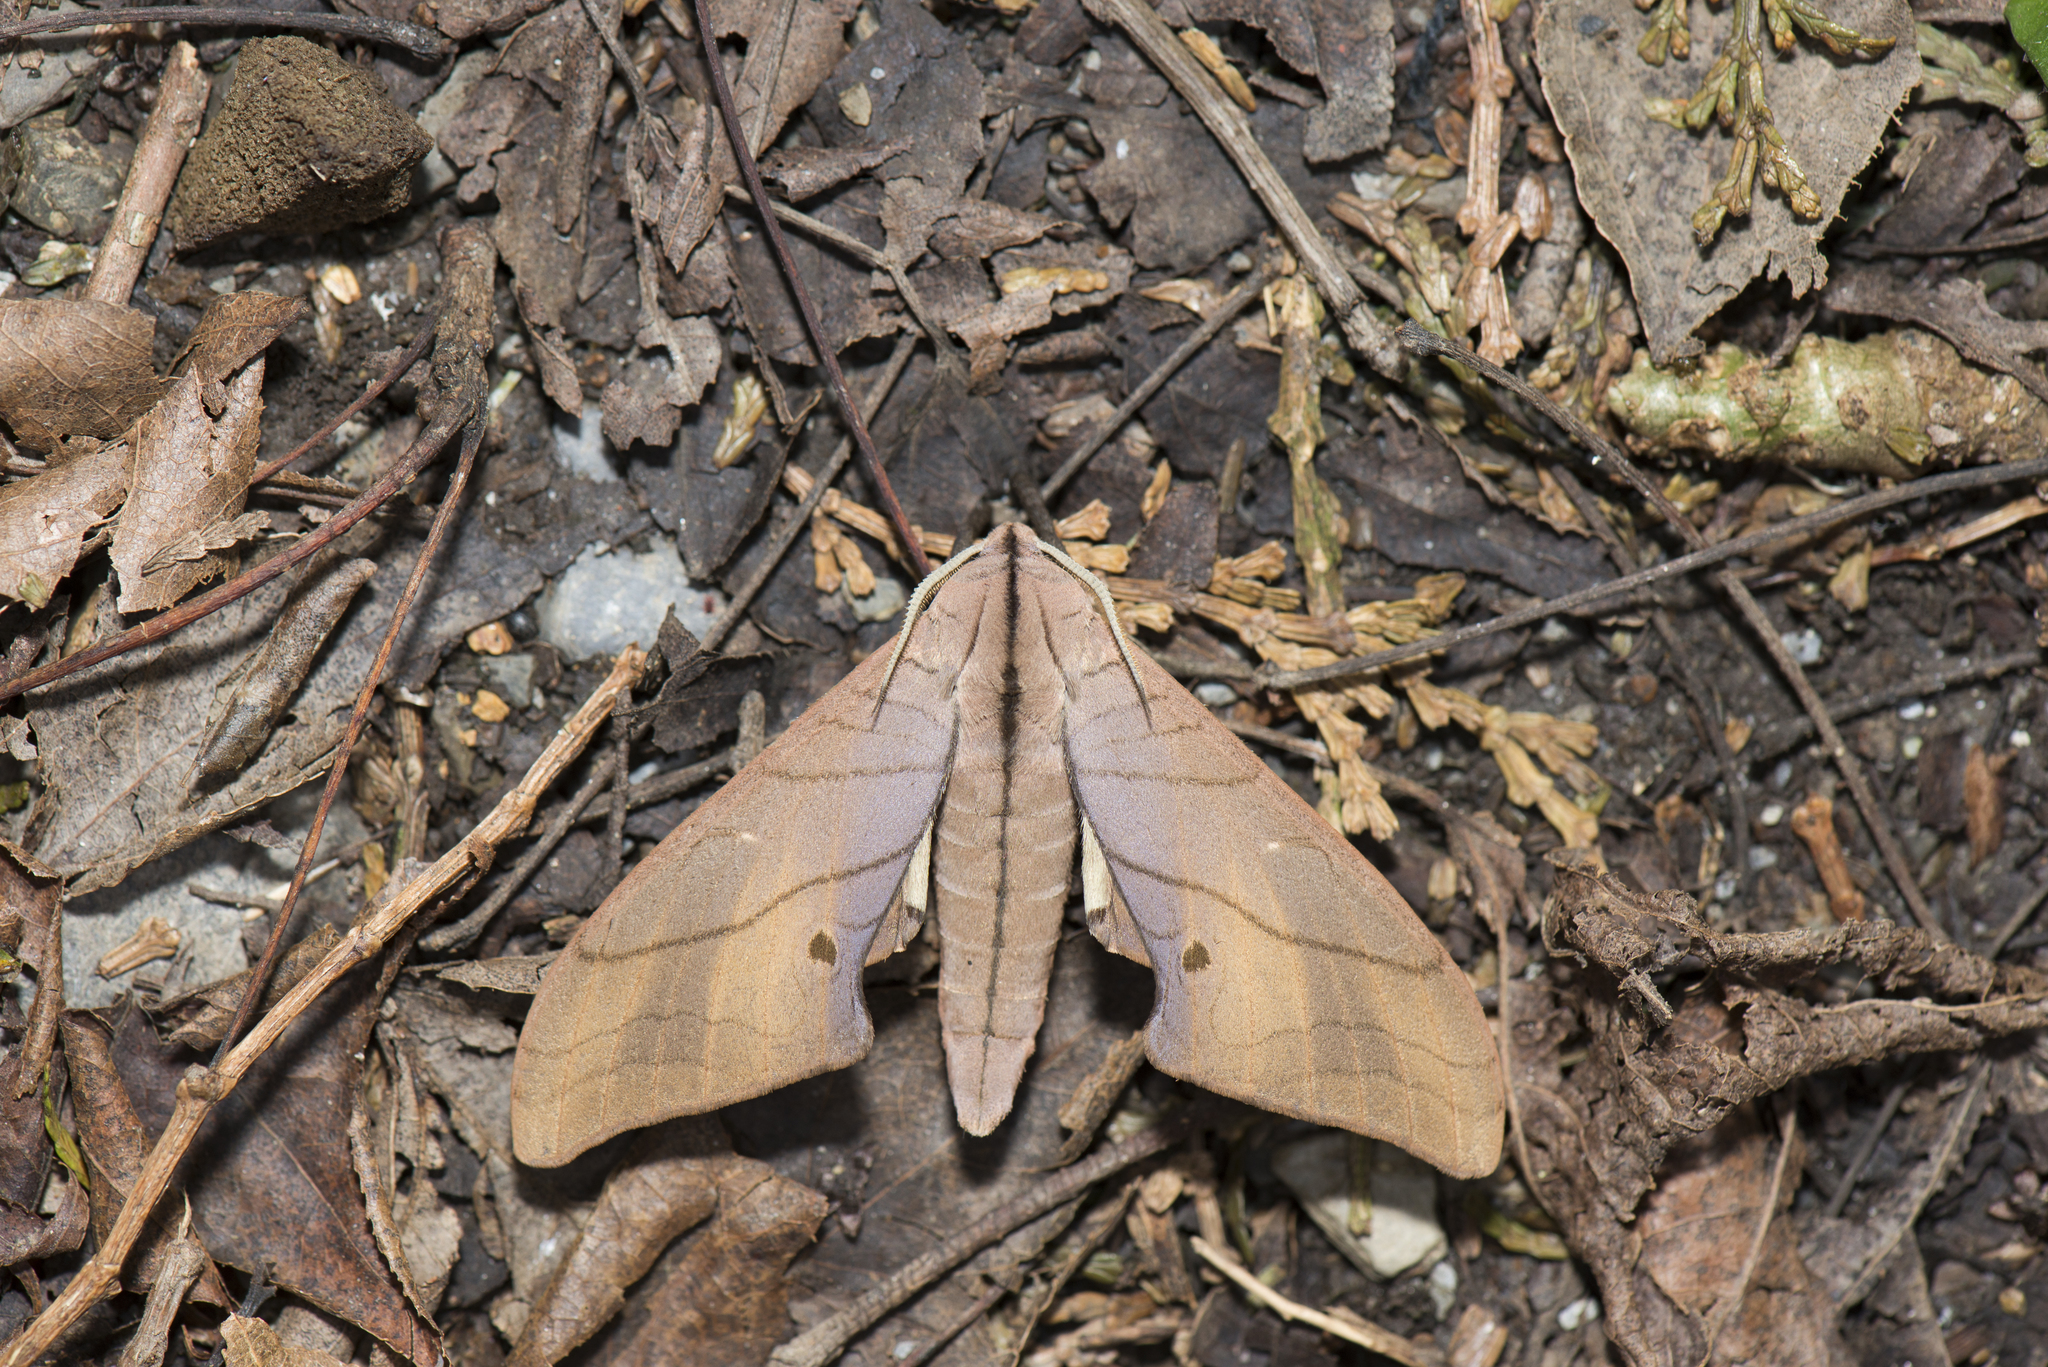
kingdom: Animalia
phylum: Arthropoda
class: Insecta
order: Lepidoptera
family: Sphingidae
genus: Marumba
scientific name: Marumba cristata
